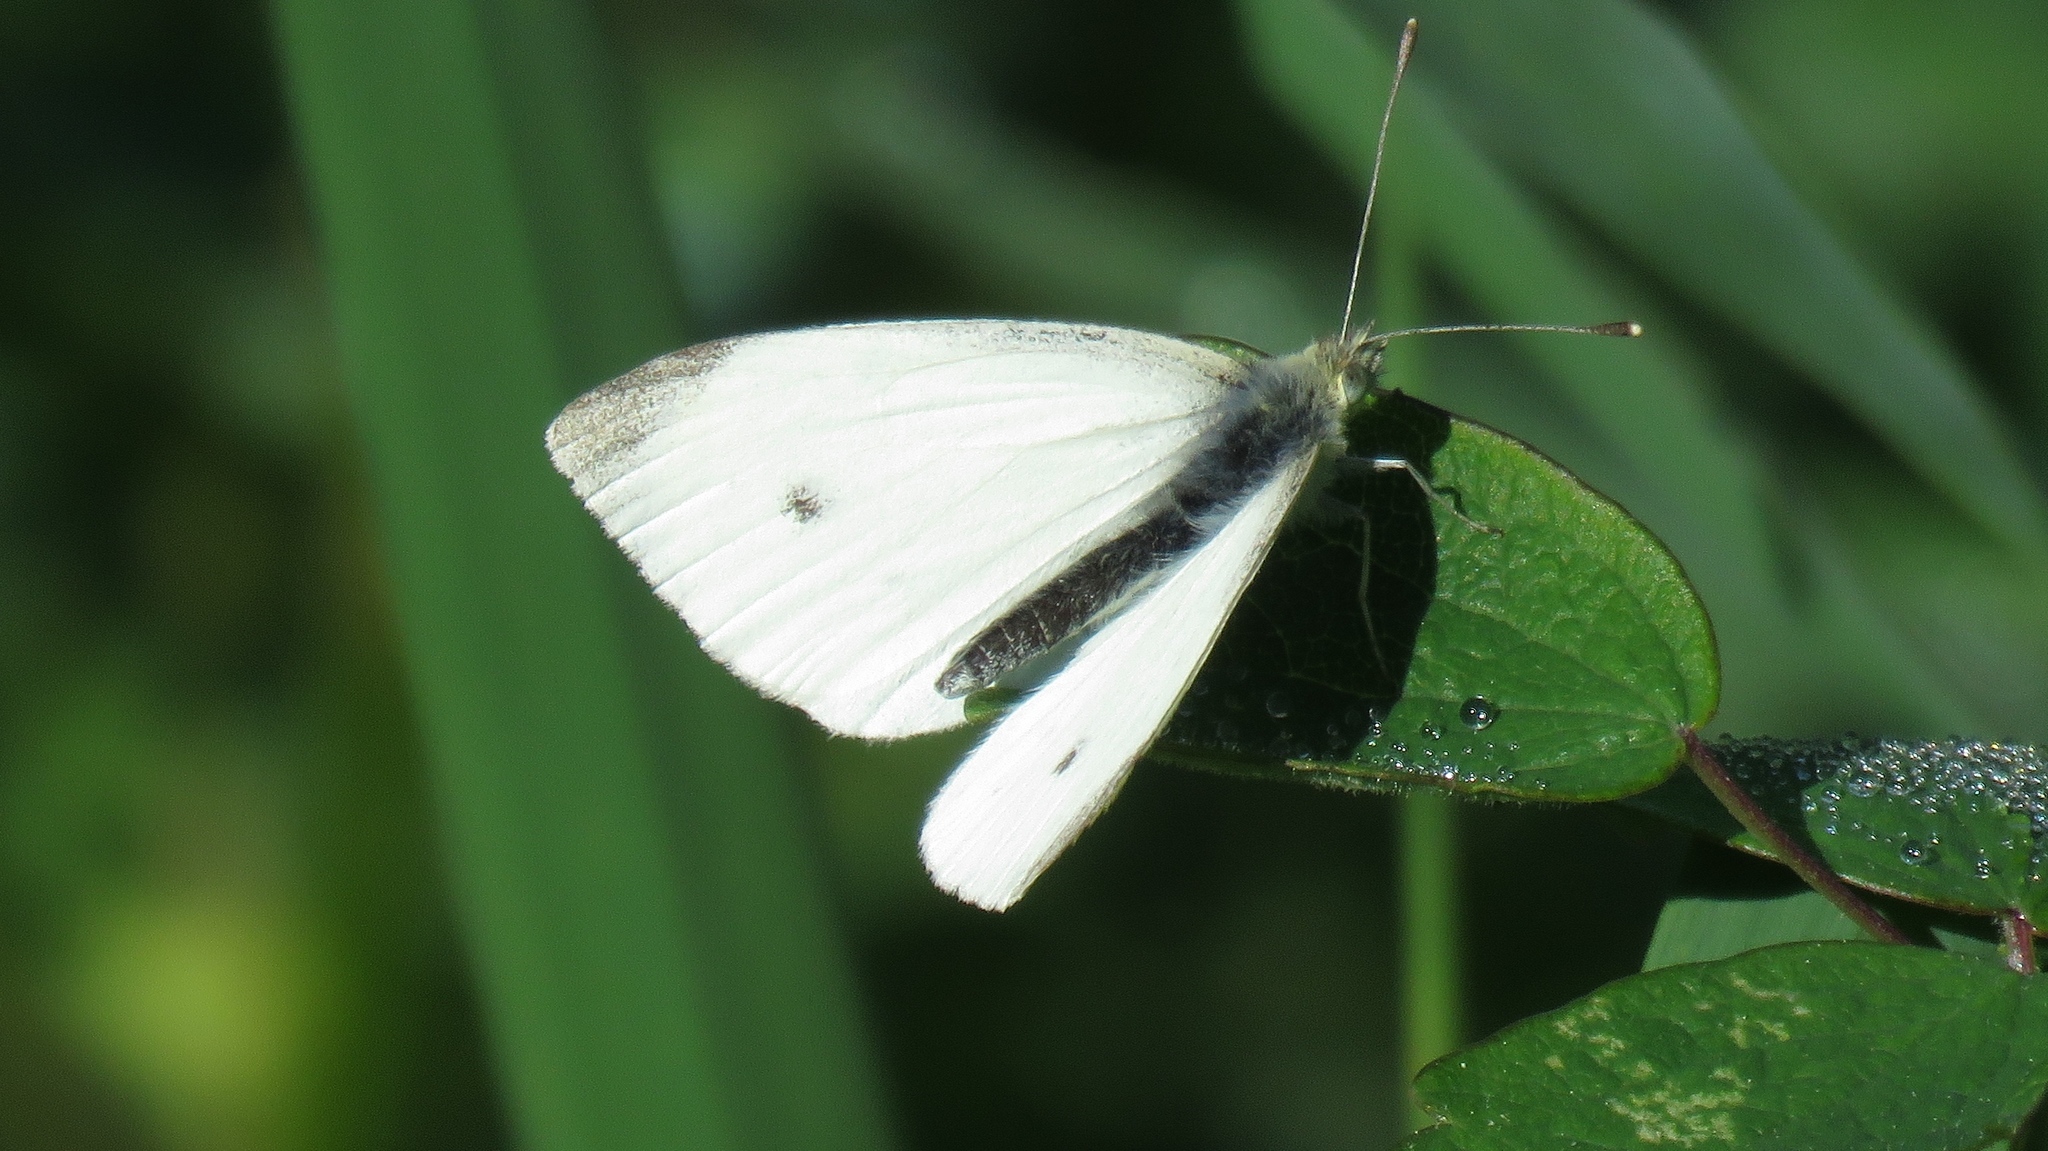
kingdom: Animalia
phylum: Arthropoda
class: Insecta
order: Lepidoptera
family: Pieridae
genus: Pieris
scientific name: Pieris rapae
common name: Small white
